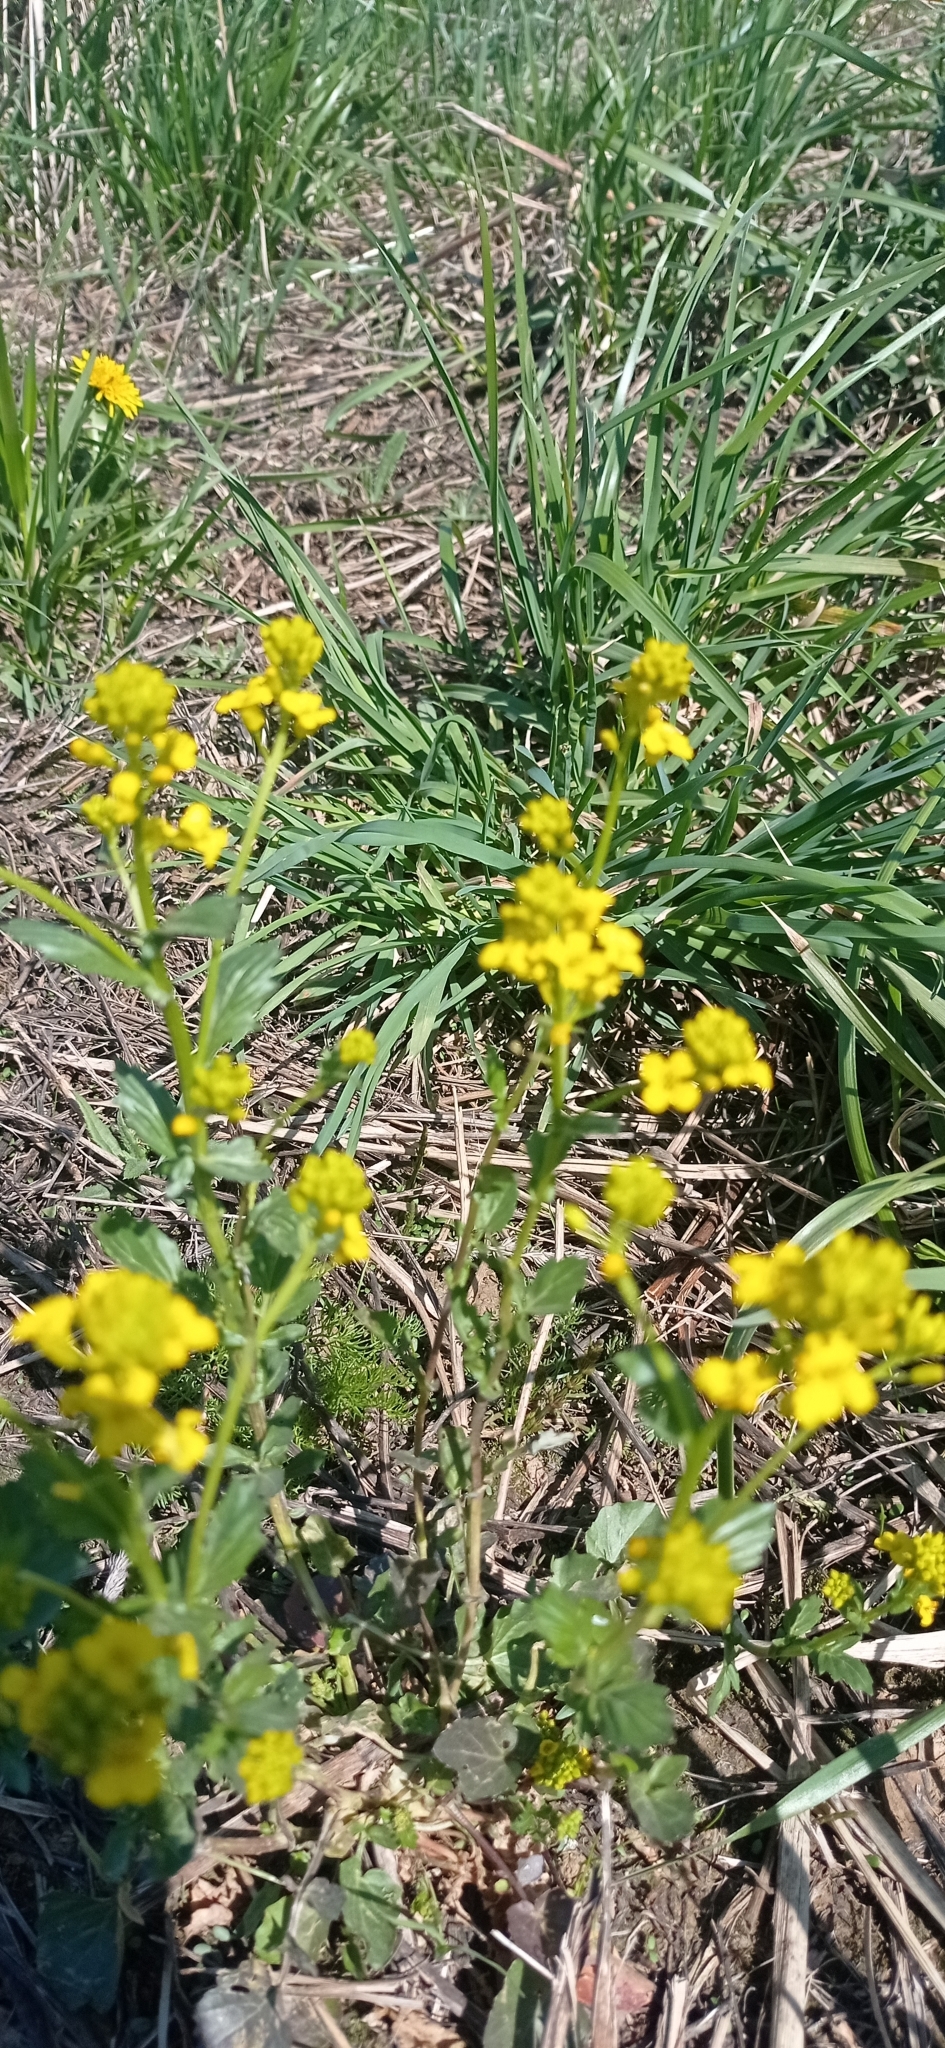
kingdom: Plantae
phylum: Tracheophyta
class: Magnoliopsida
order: Brassicales
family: Brassicaceae
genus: Barbarea
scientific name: Barbarea vulgaris
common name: Cressy-greens
